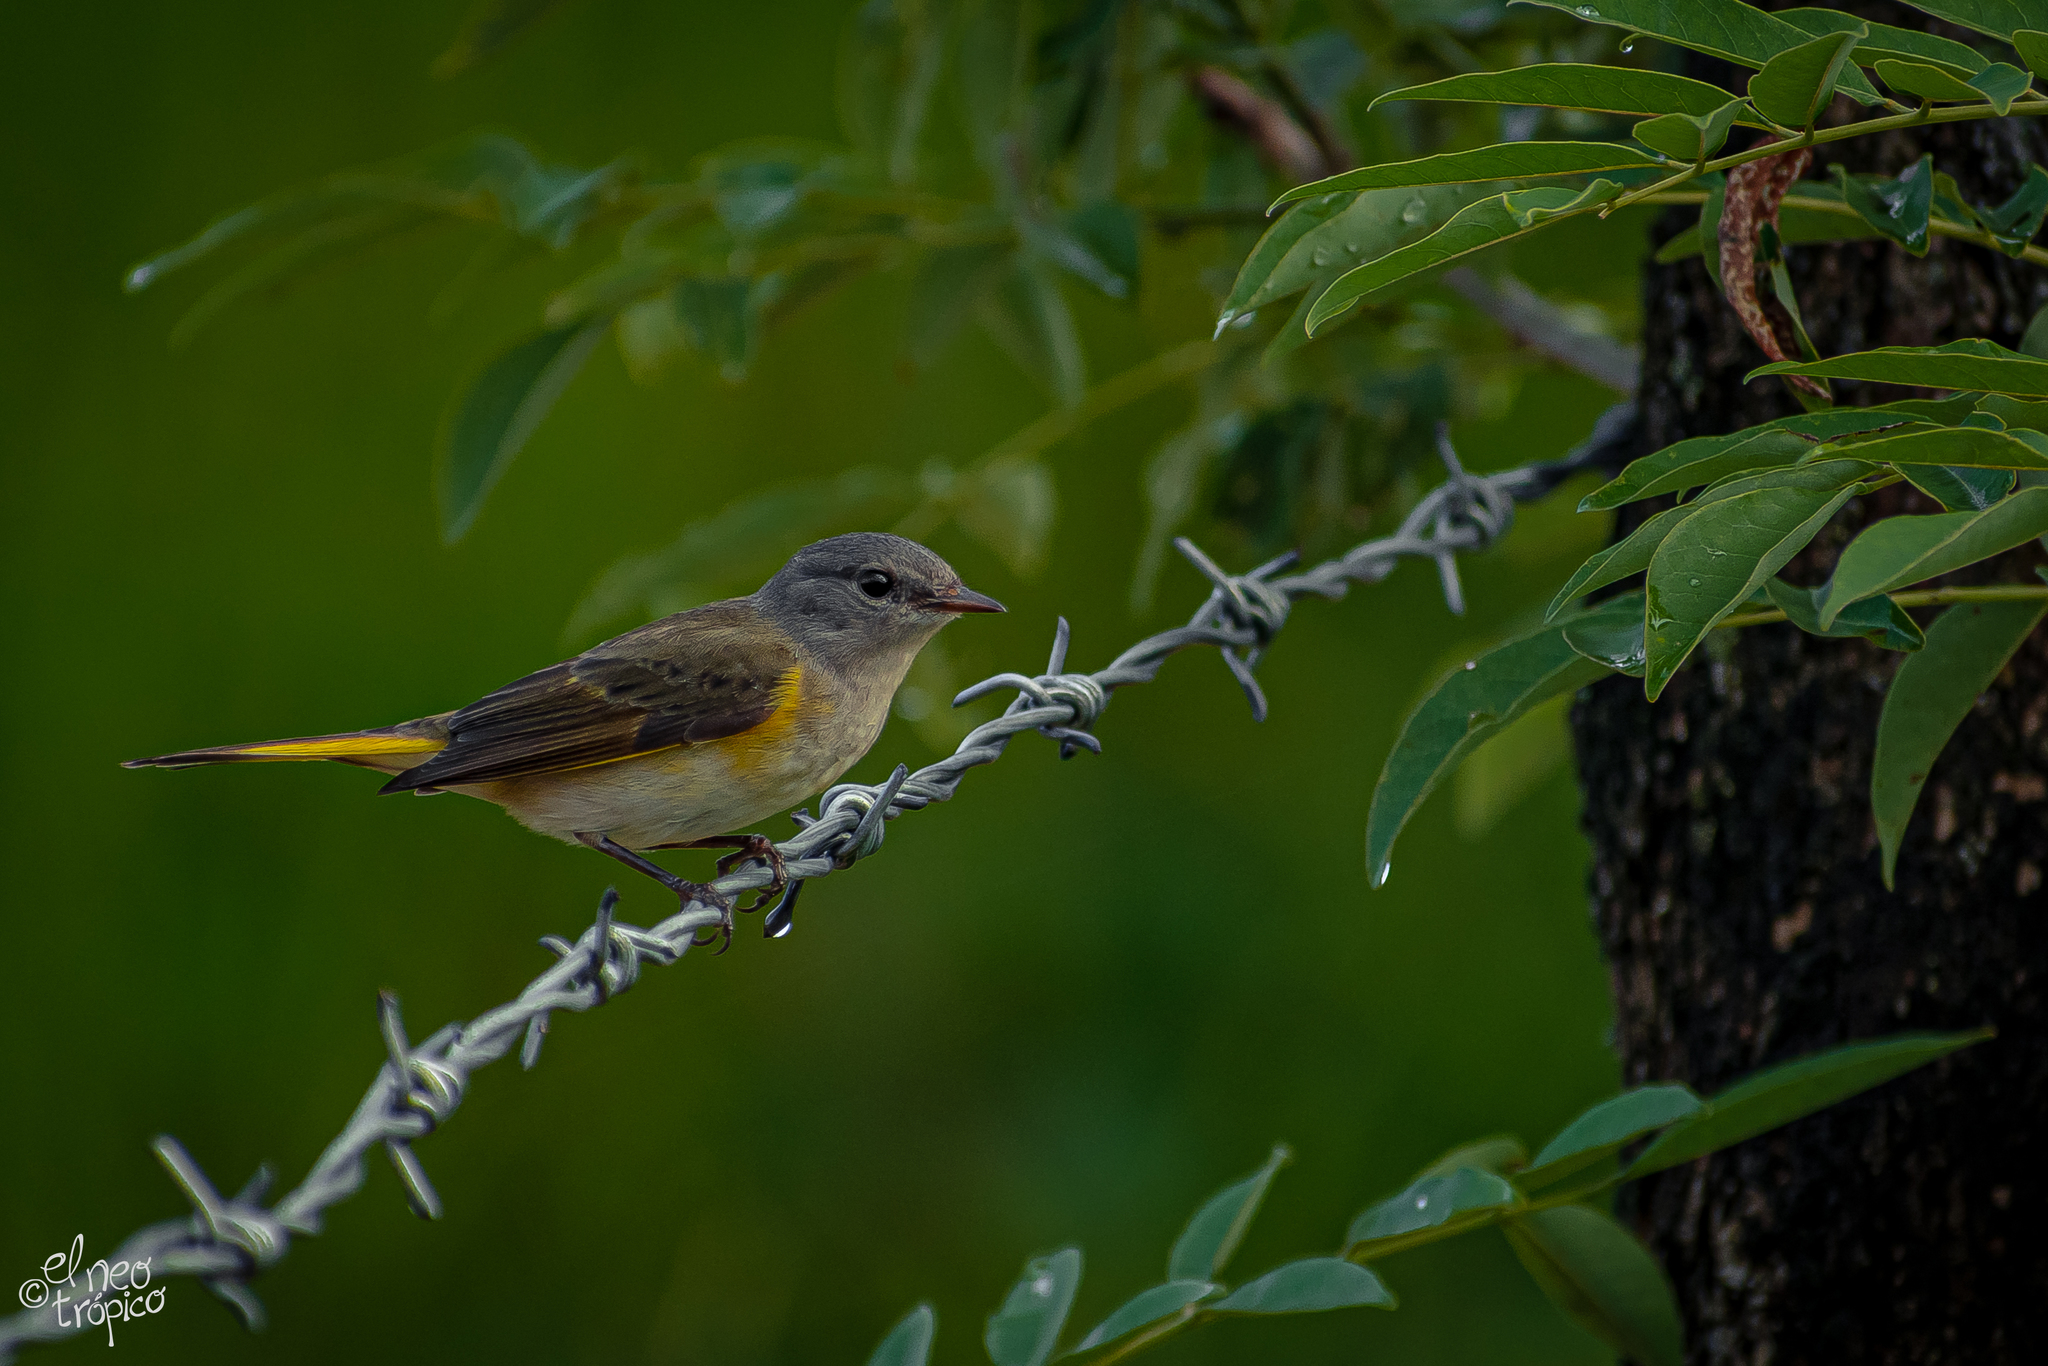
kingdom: Animalia
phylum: Chordata
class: Aves
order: Passeriformes
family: Parulidae
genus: Setophaga
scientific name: Setophaga ruticilla
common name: American redstart
